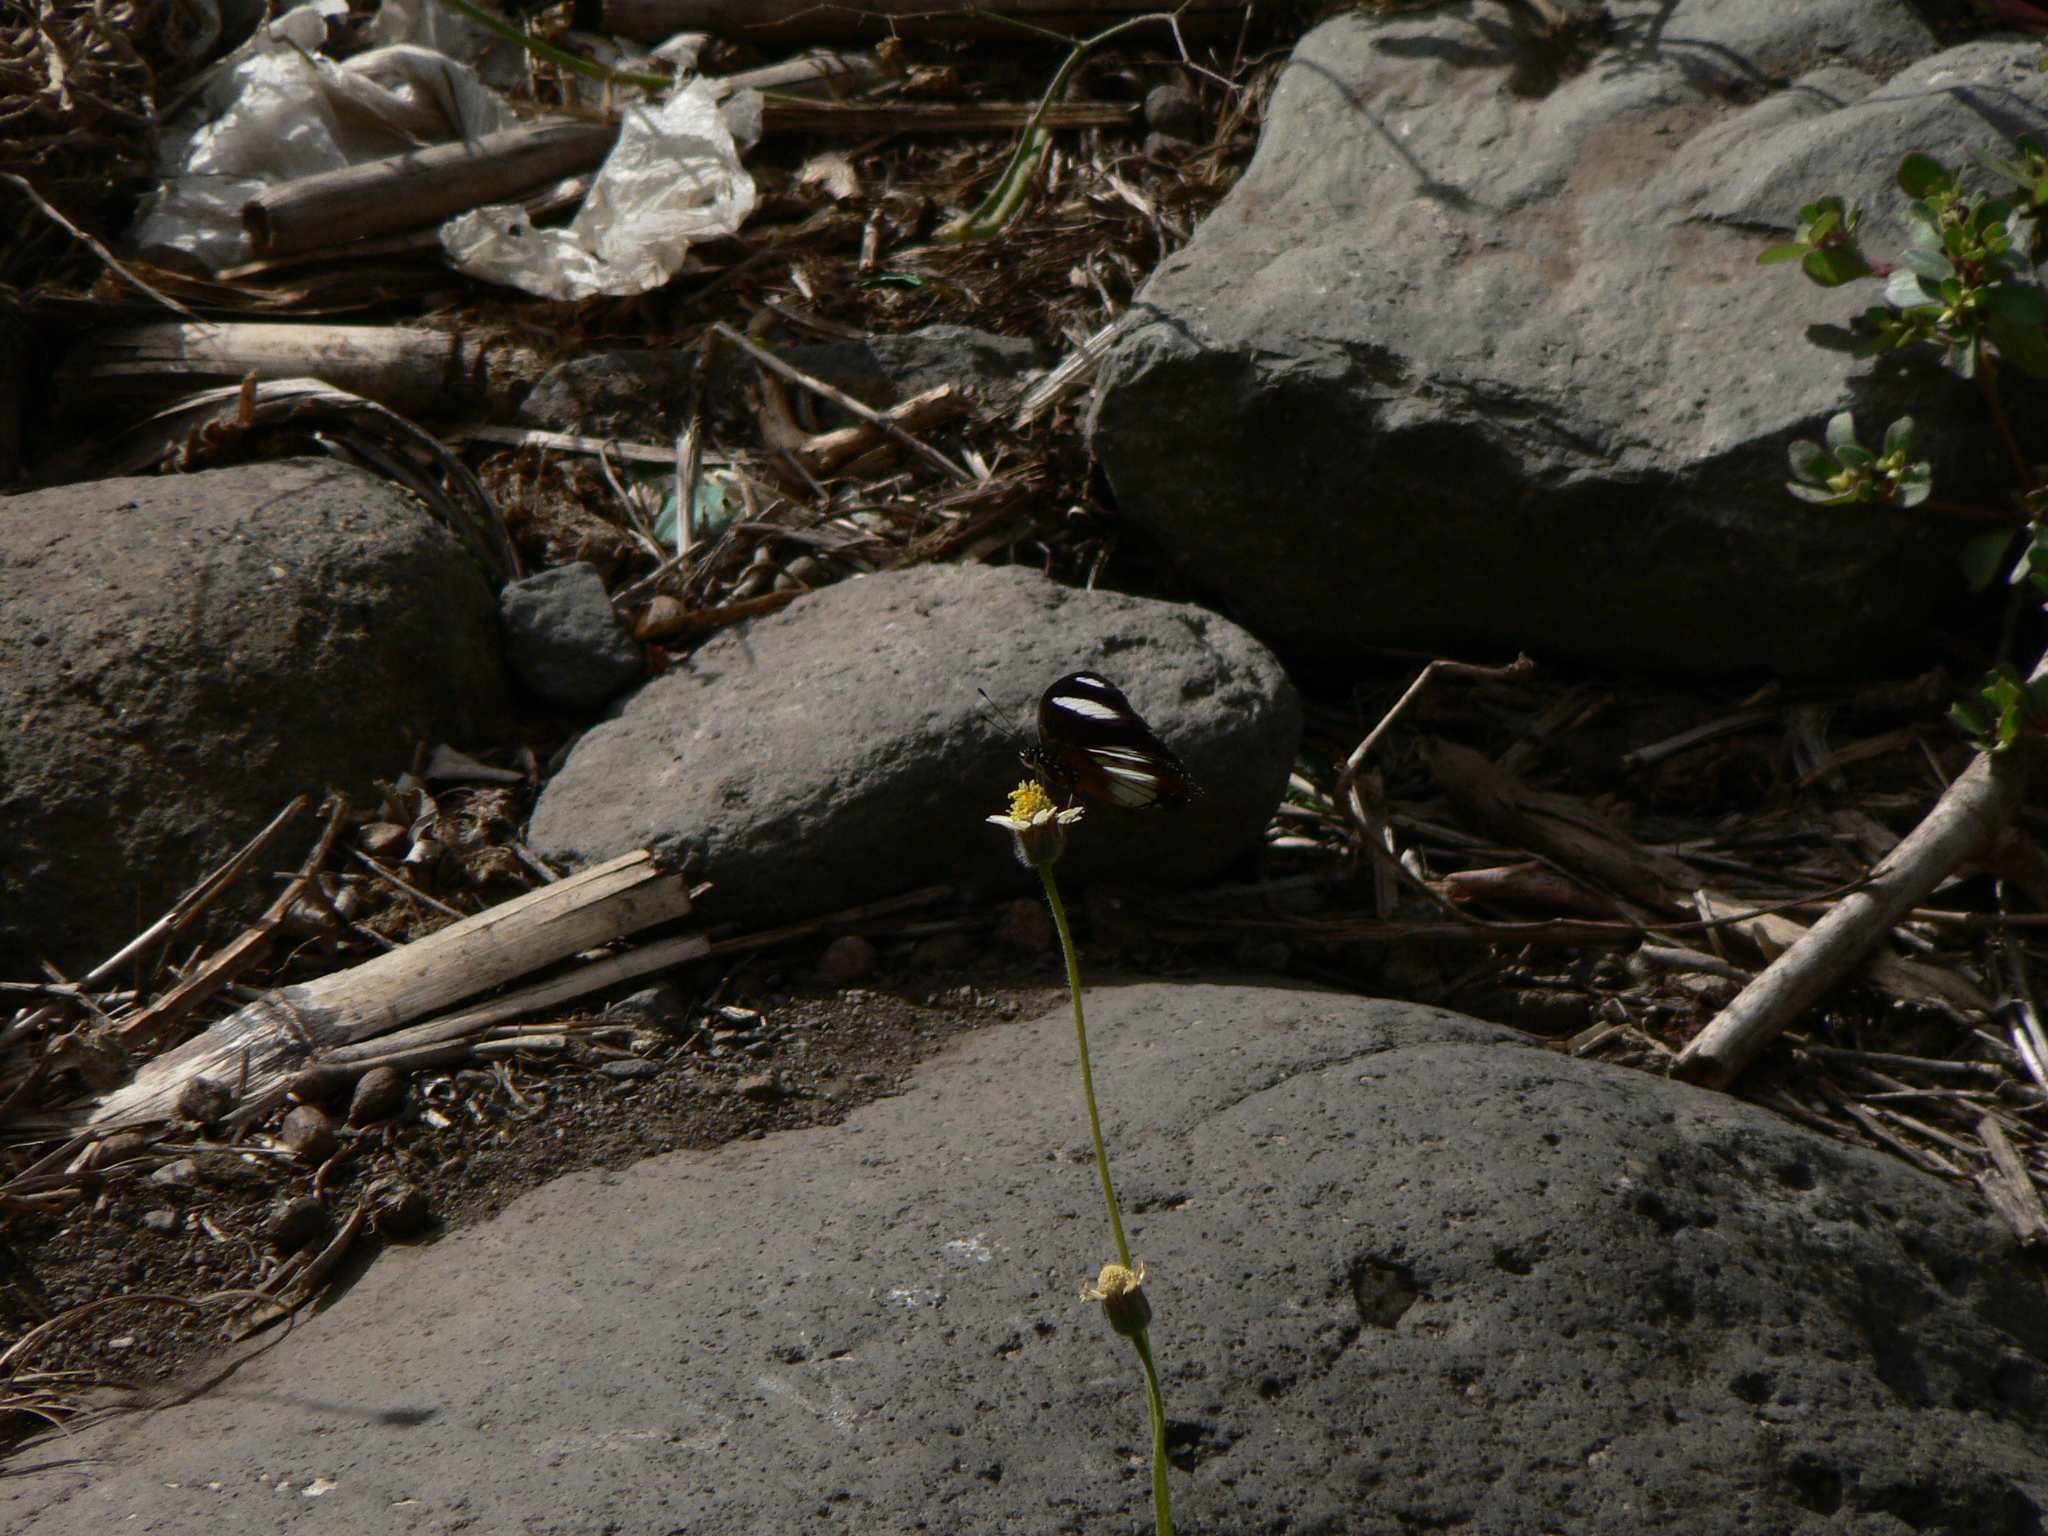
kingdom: Animalia
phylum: Arthropoda
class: Insecta
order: Lepidoptera
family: Nymphalidae
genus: Hypolimnas
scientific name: Hypolimnas misippus
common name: False plain tiger
